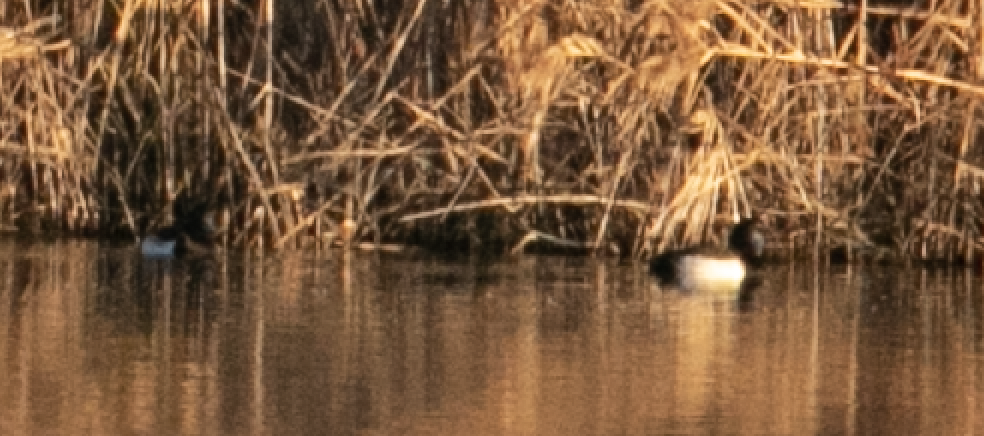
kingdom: Animalia
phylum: Chordata
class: Aves
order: Anseriformes
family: Anatidae
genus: Aythya
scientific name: Aythya fuligula
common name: Tufted duck
